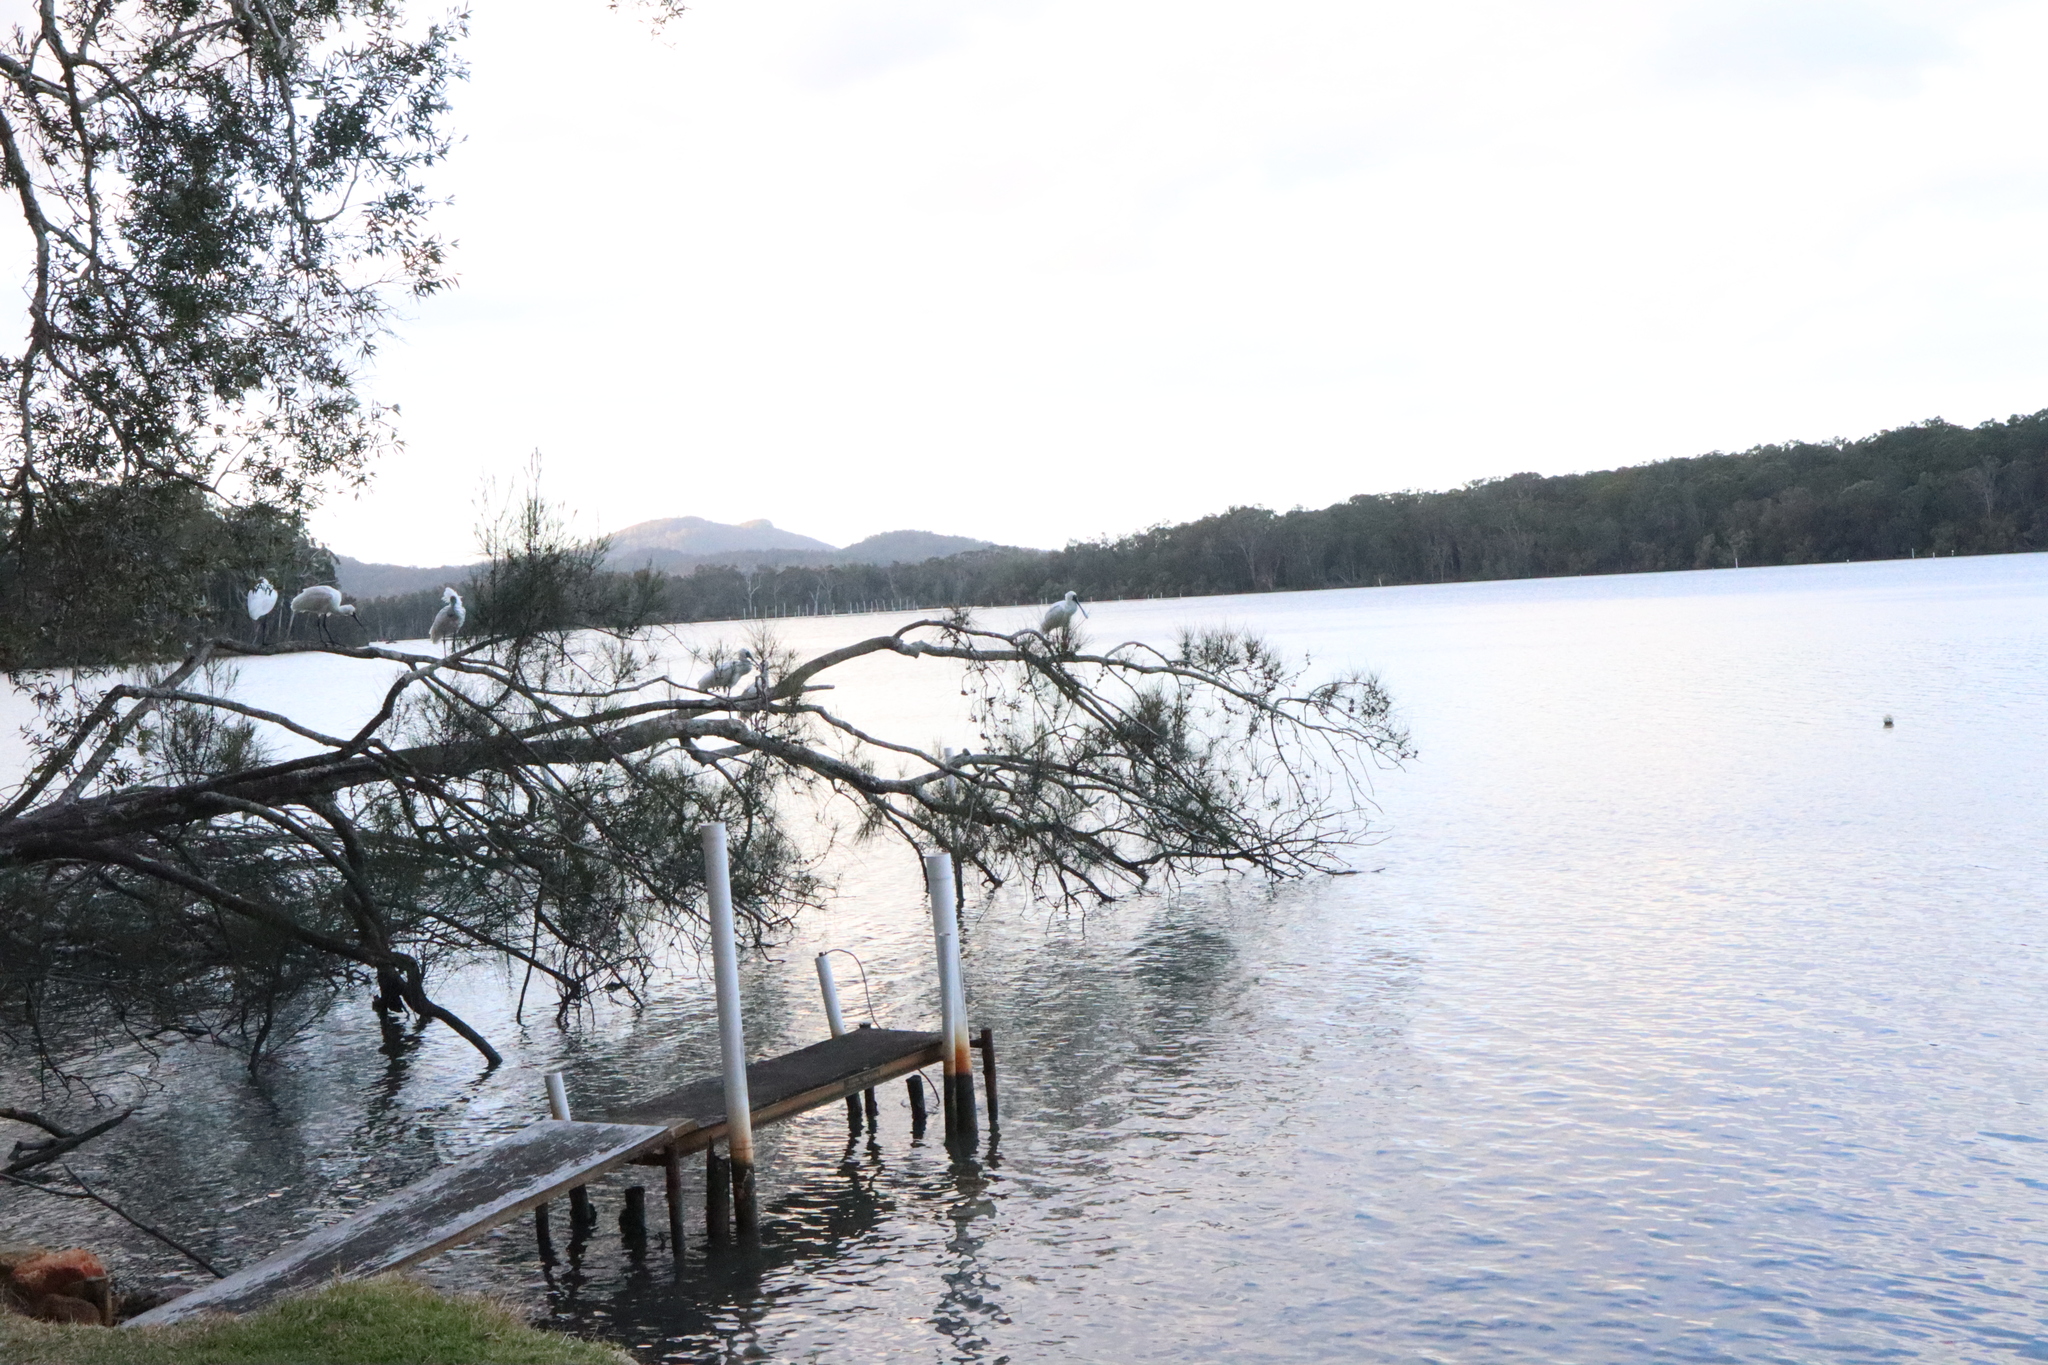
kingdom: Animalia
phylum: Chordata
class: Aves
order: Pelecaniformes
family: Threskiornithidae
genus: Platalea
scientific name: Platalea regia
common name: Royal spoonbill
